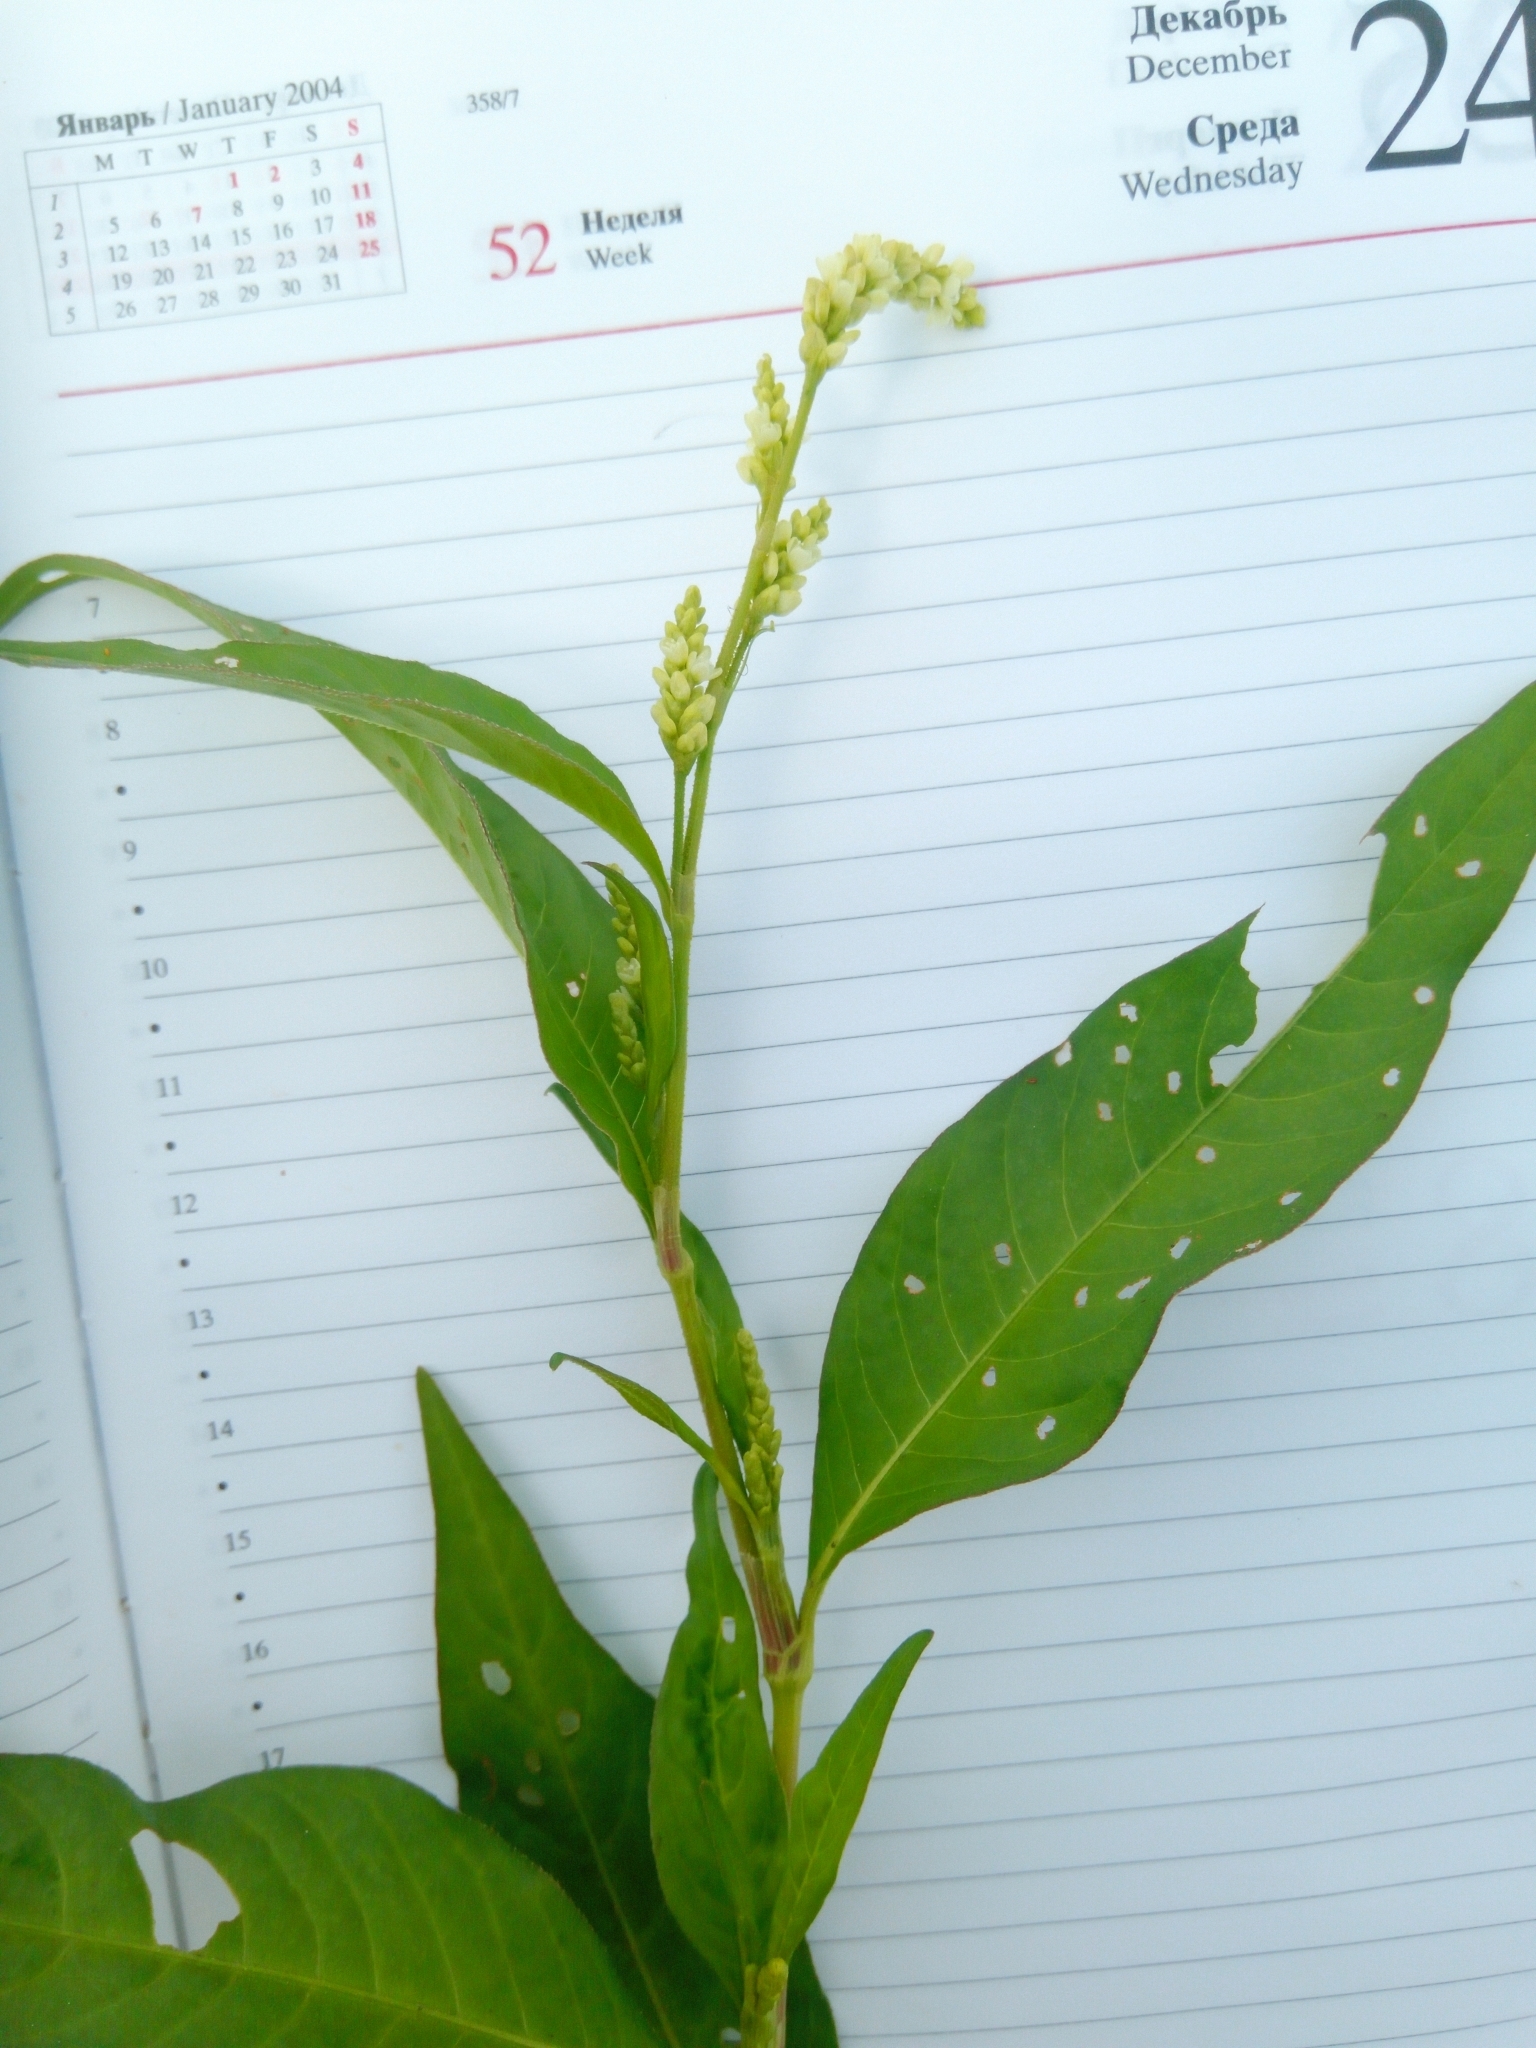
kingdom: Plantae
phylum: Tracheophyta
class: Magnoliopsida
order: Caryophyllales
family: Polygonaceae
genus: Persicaria
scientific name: Persicaria lapathifolia
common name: Curlytop knotweed
